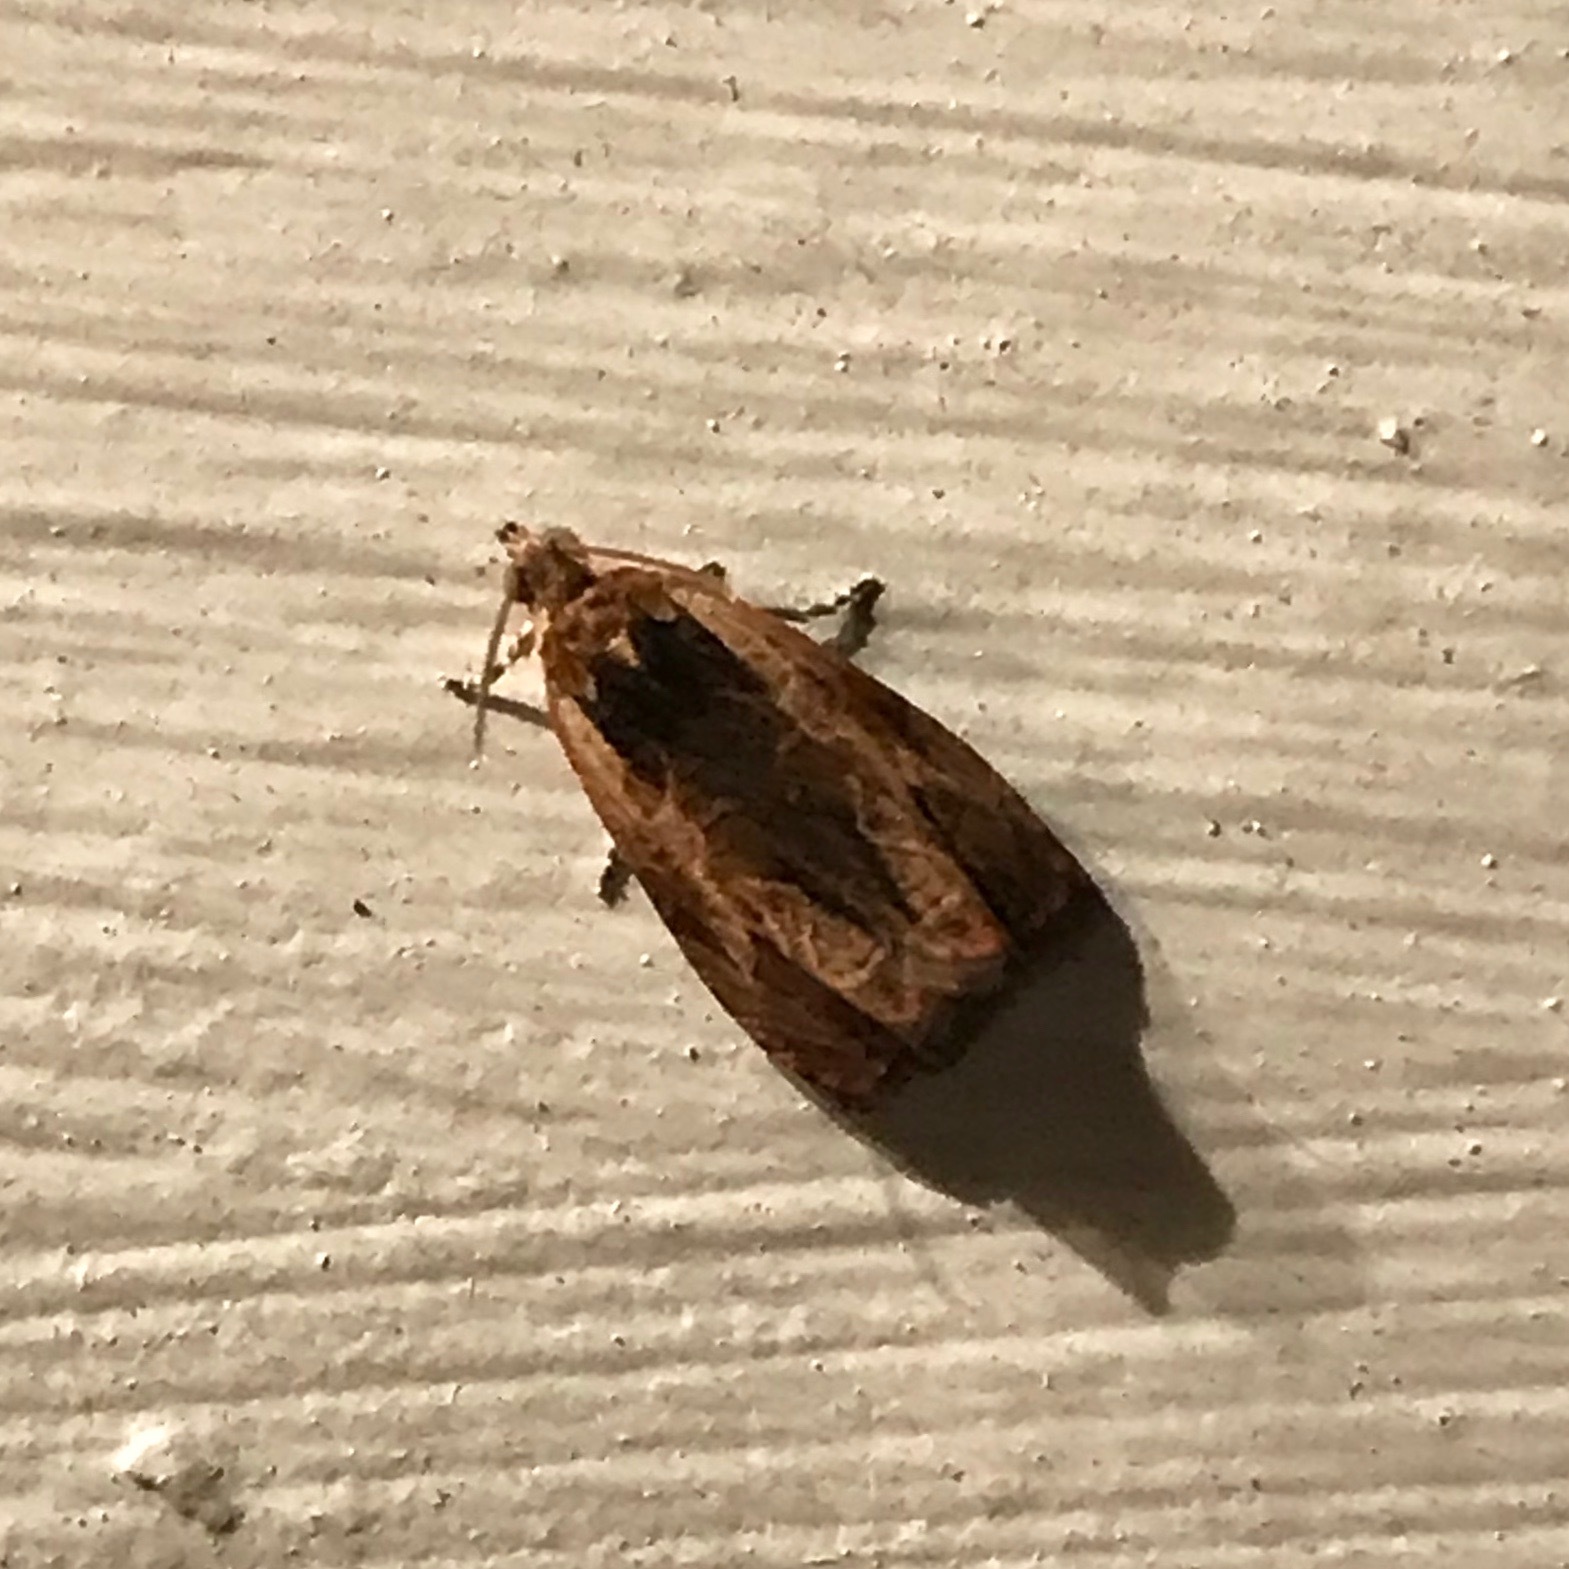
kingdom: Animalia
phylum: Arthropoda
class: Insecta
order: Lepidoptera
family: Tortricidae
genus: Olethreutes
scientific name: Olethreutes nigranum
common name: Variable nigranum moth
